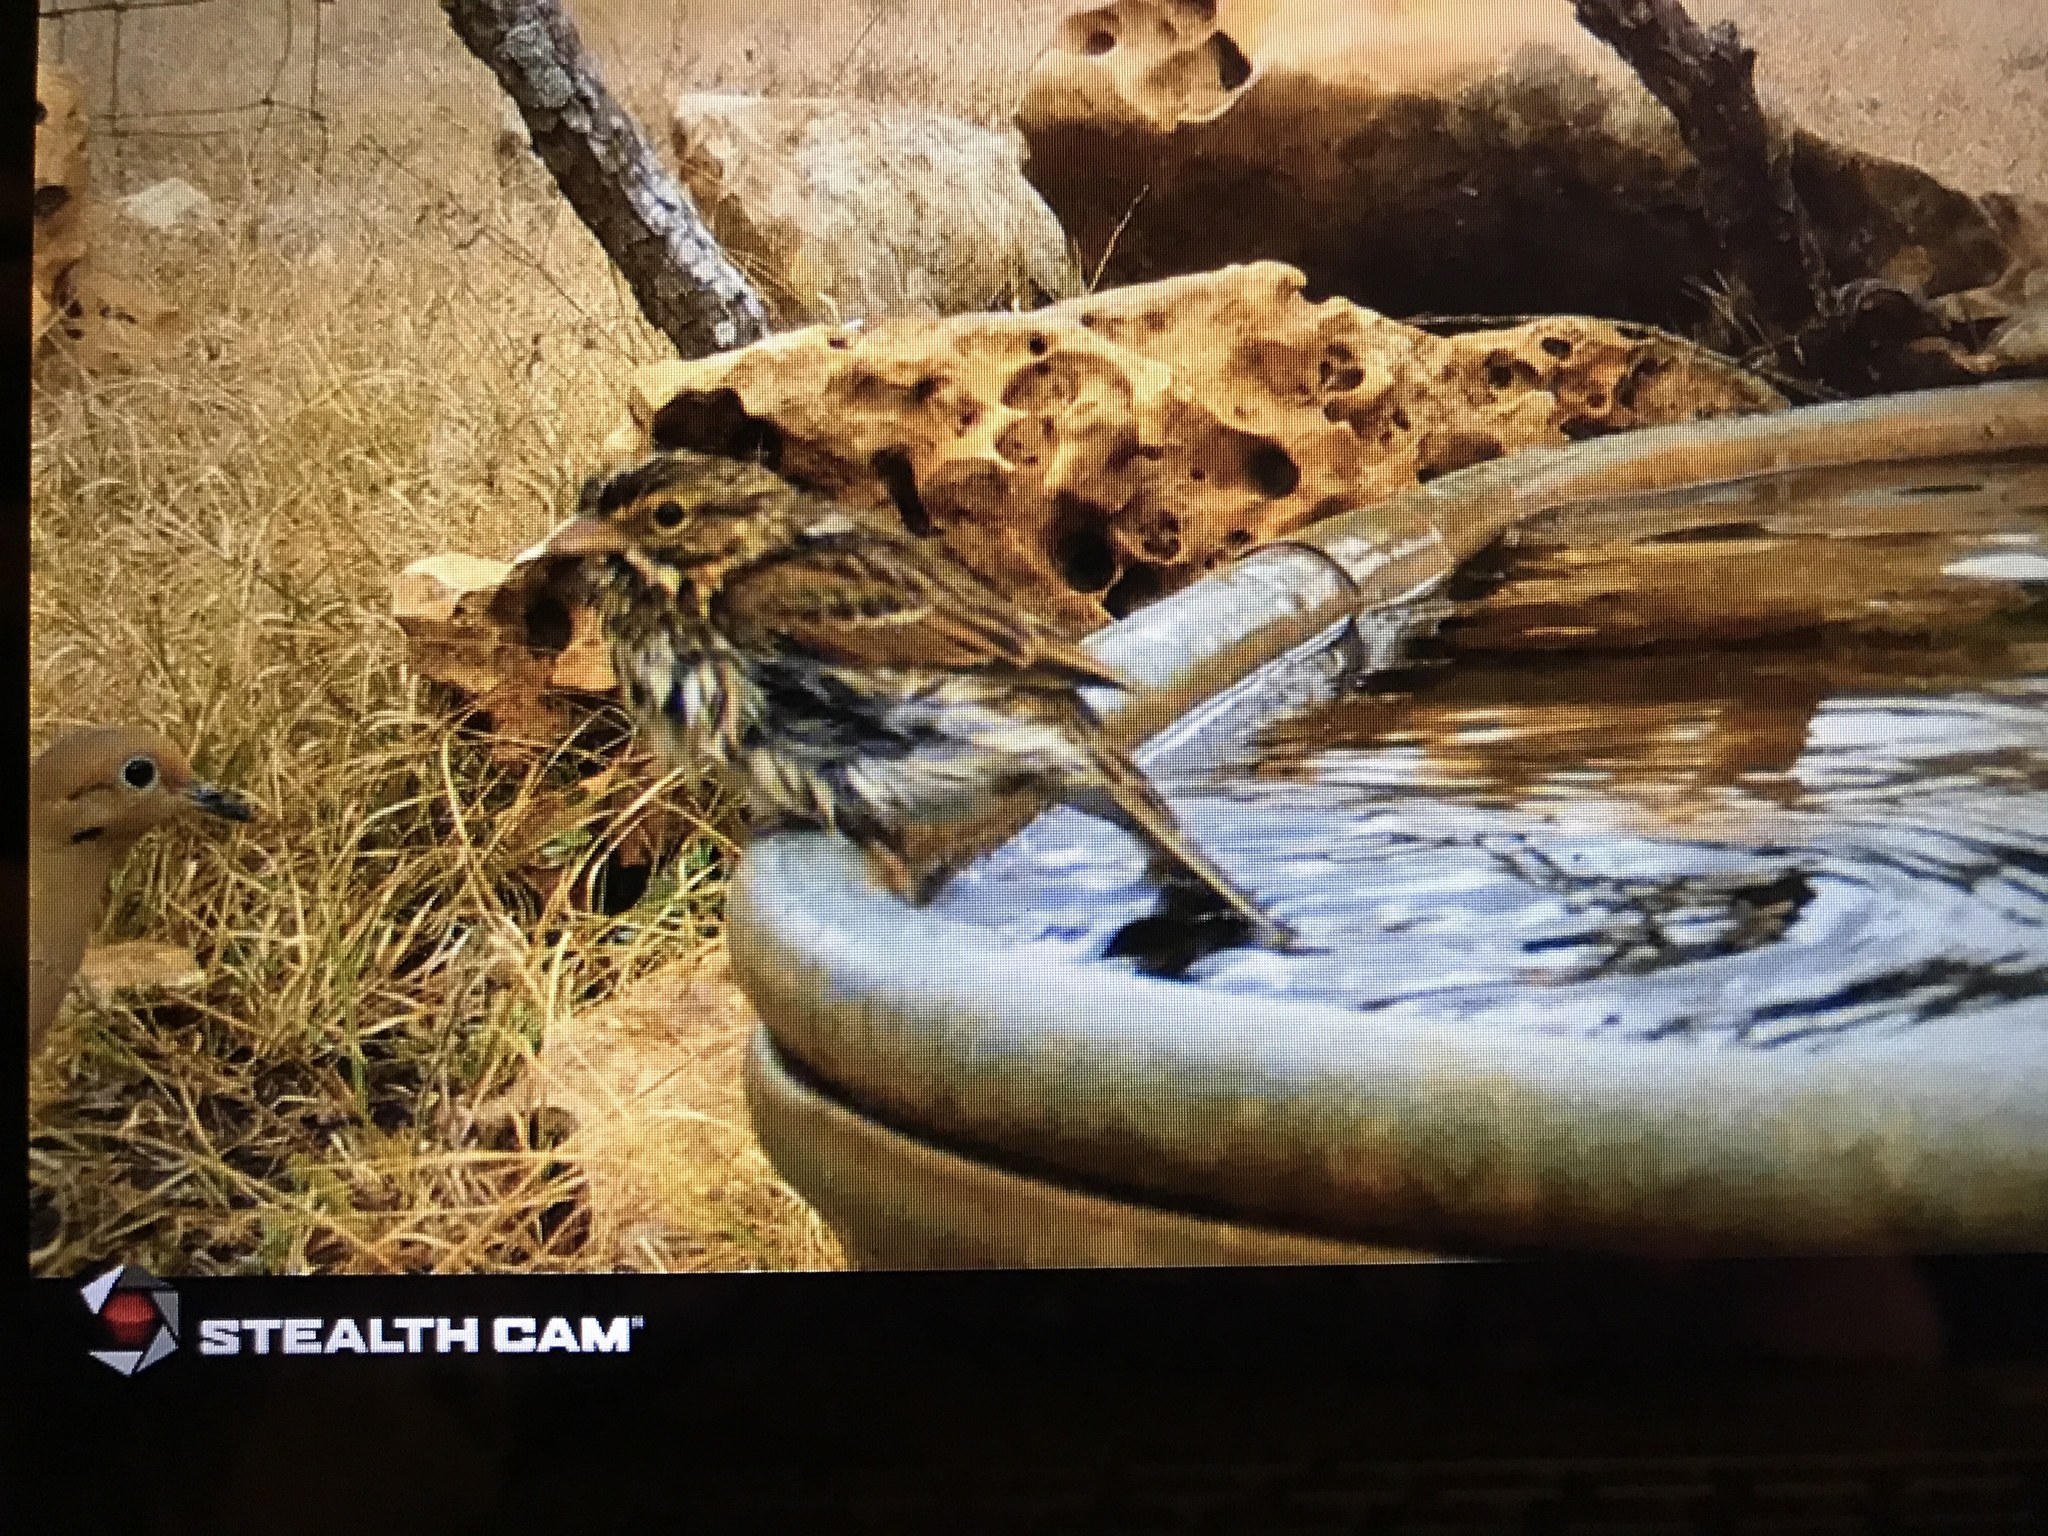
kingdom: Animalia
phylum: Chordata
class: Aves
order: Passeriformes
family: Passerellidae
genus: Passerculus
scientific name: Passerculus sandwichensis
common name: Savannah sparrow
